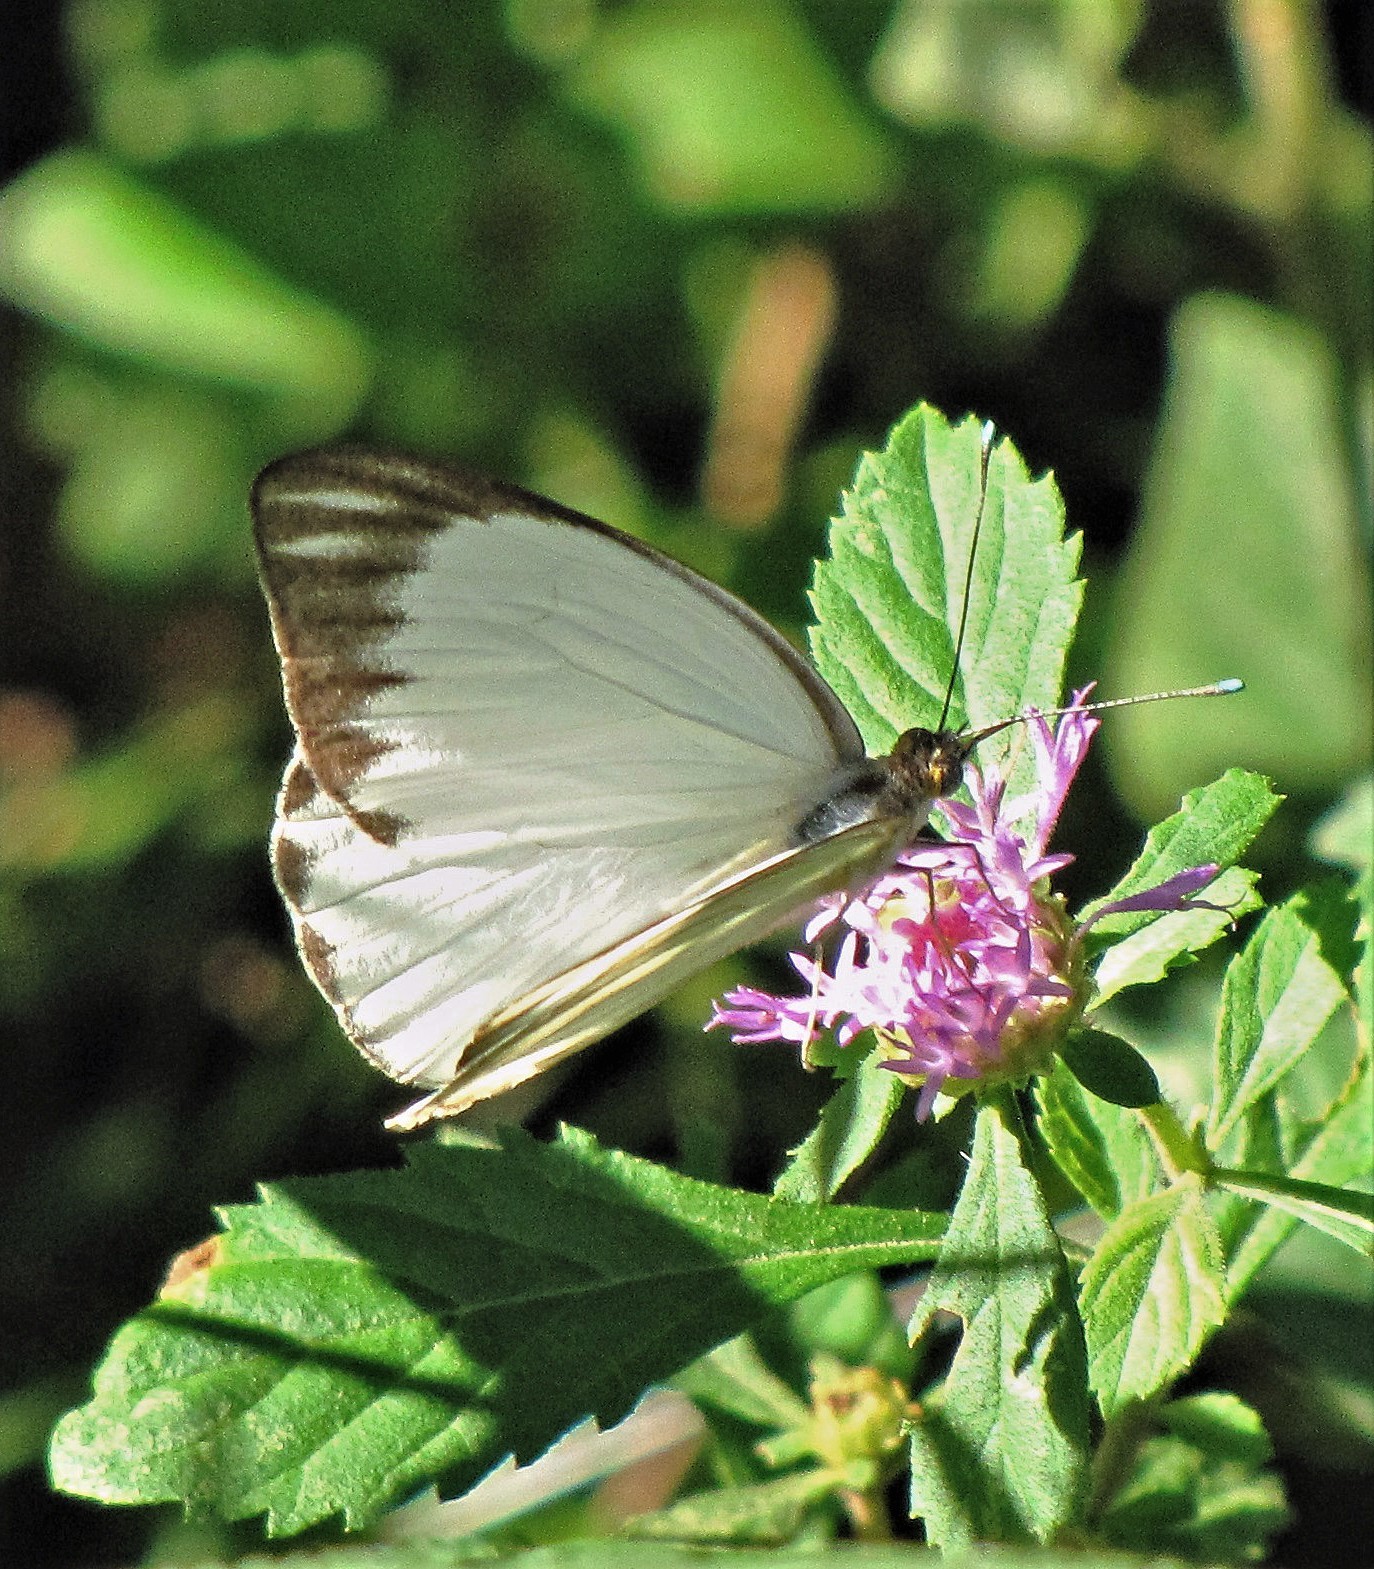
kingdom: Animalia
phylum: Arthropoda
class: Insecta
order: Lepidoptera
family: Pieridae
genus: Ascia
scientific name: Ascia monuste
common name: Great southern white
